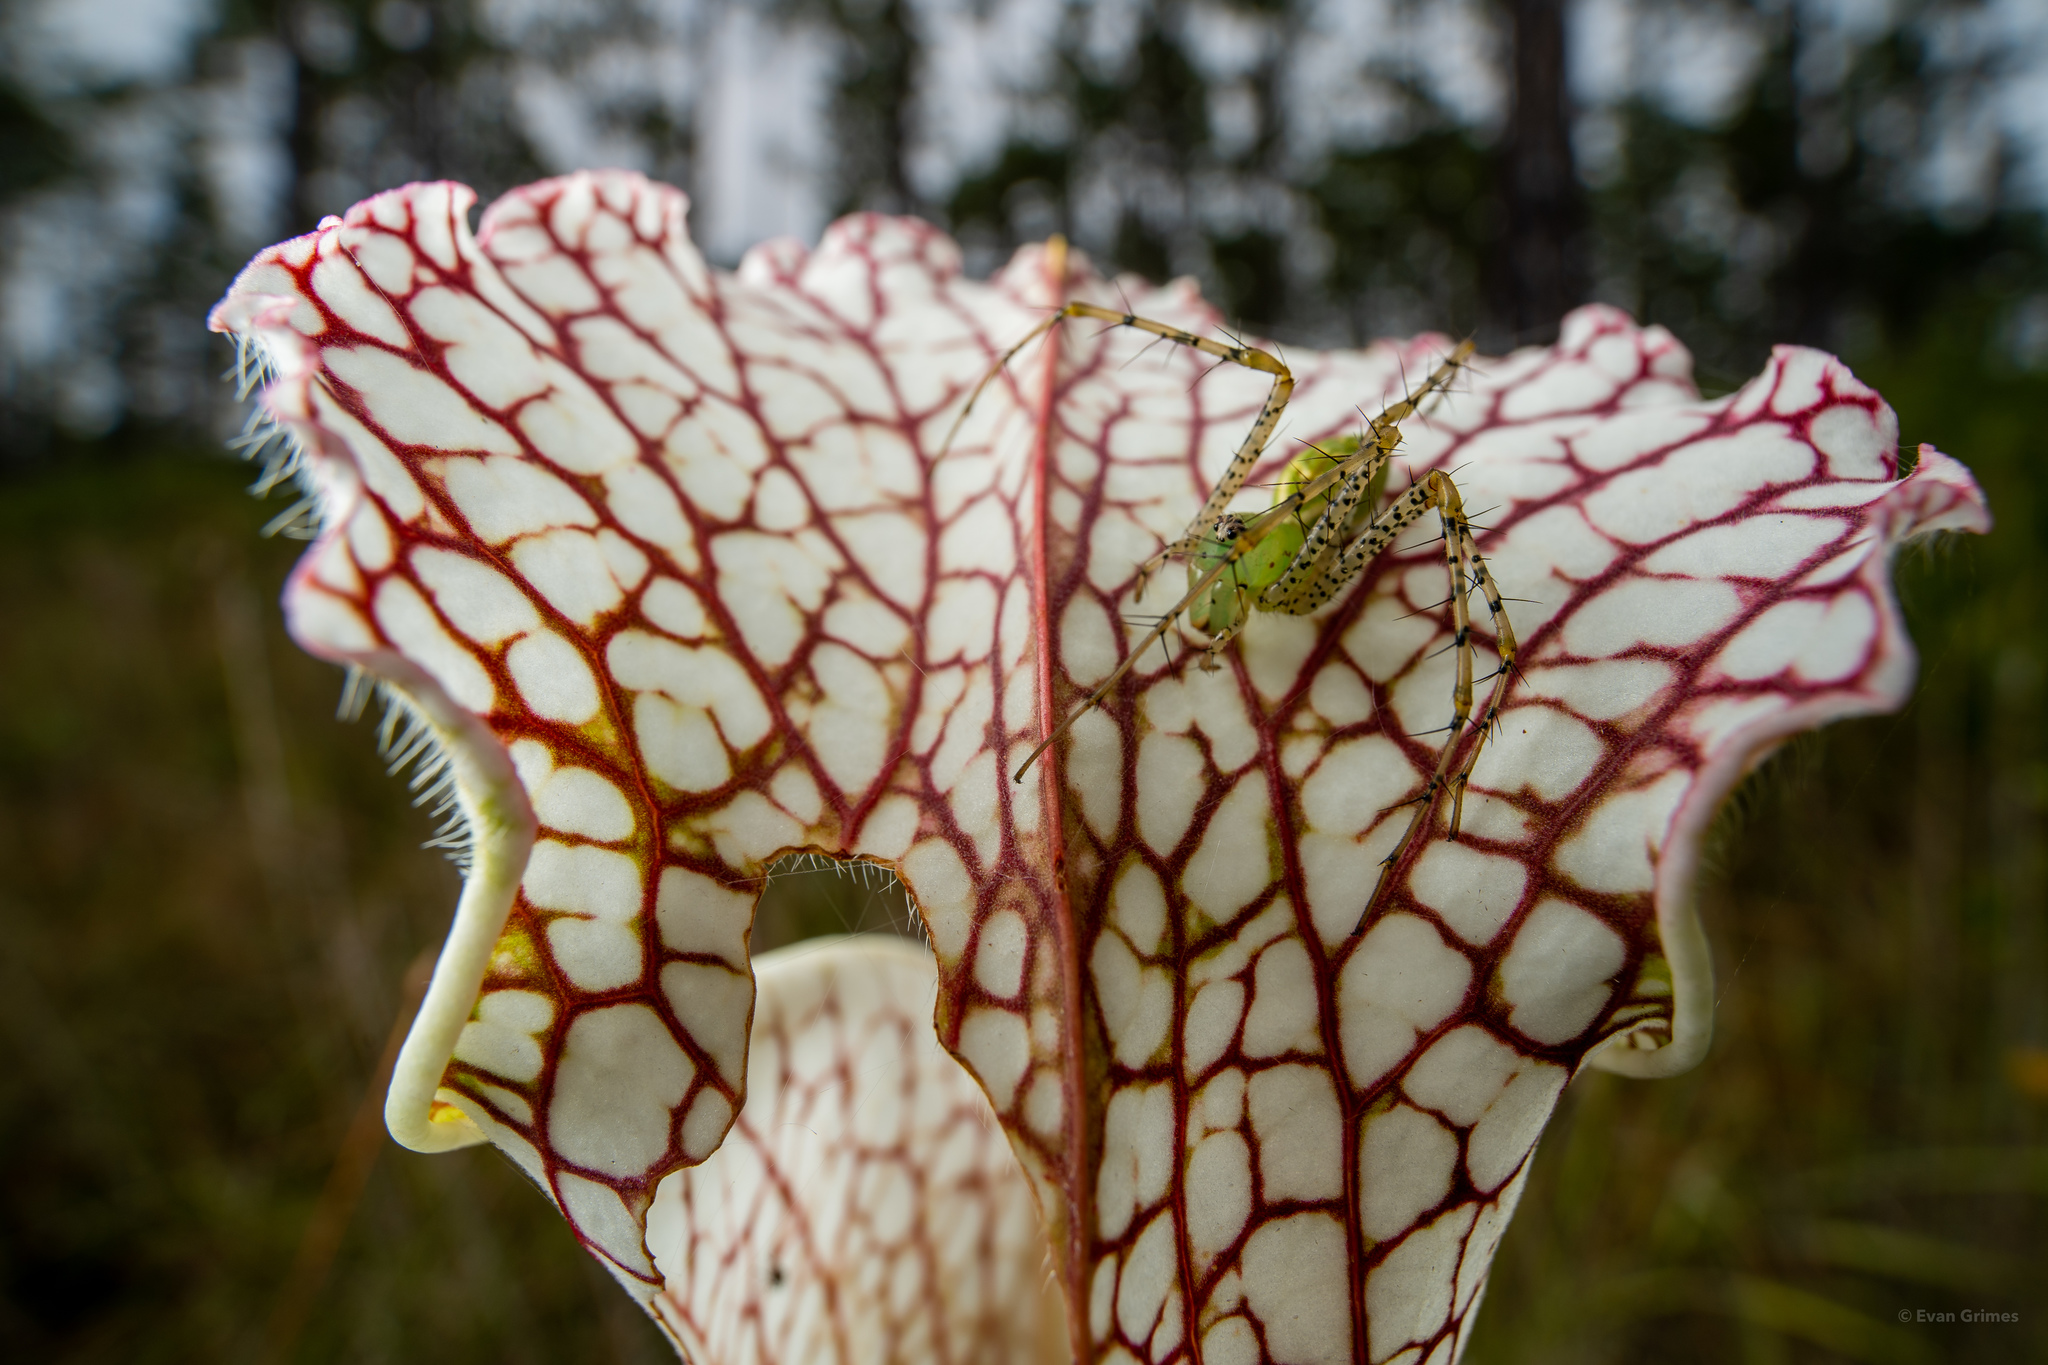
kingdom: Animalia
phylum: Arthropoda
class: Arachnida
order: Araneae
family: Oxyopidae
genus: Peucetia
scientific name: Peucetia viridans
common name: Lynx spiders
